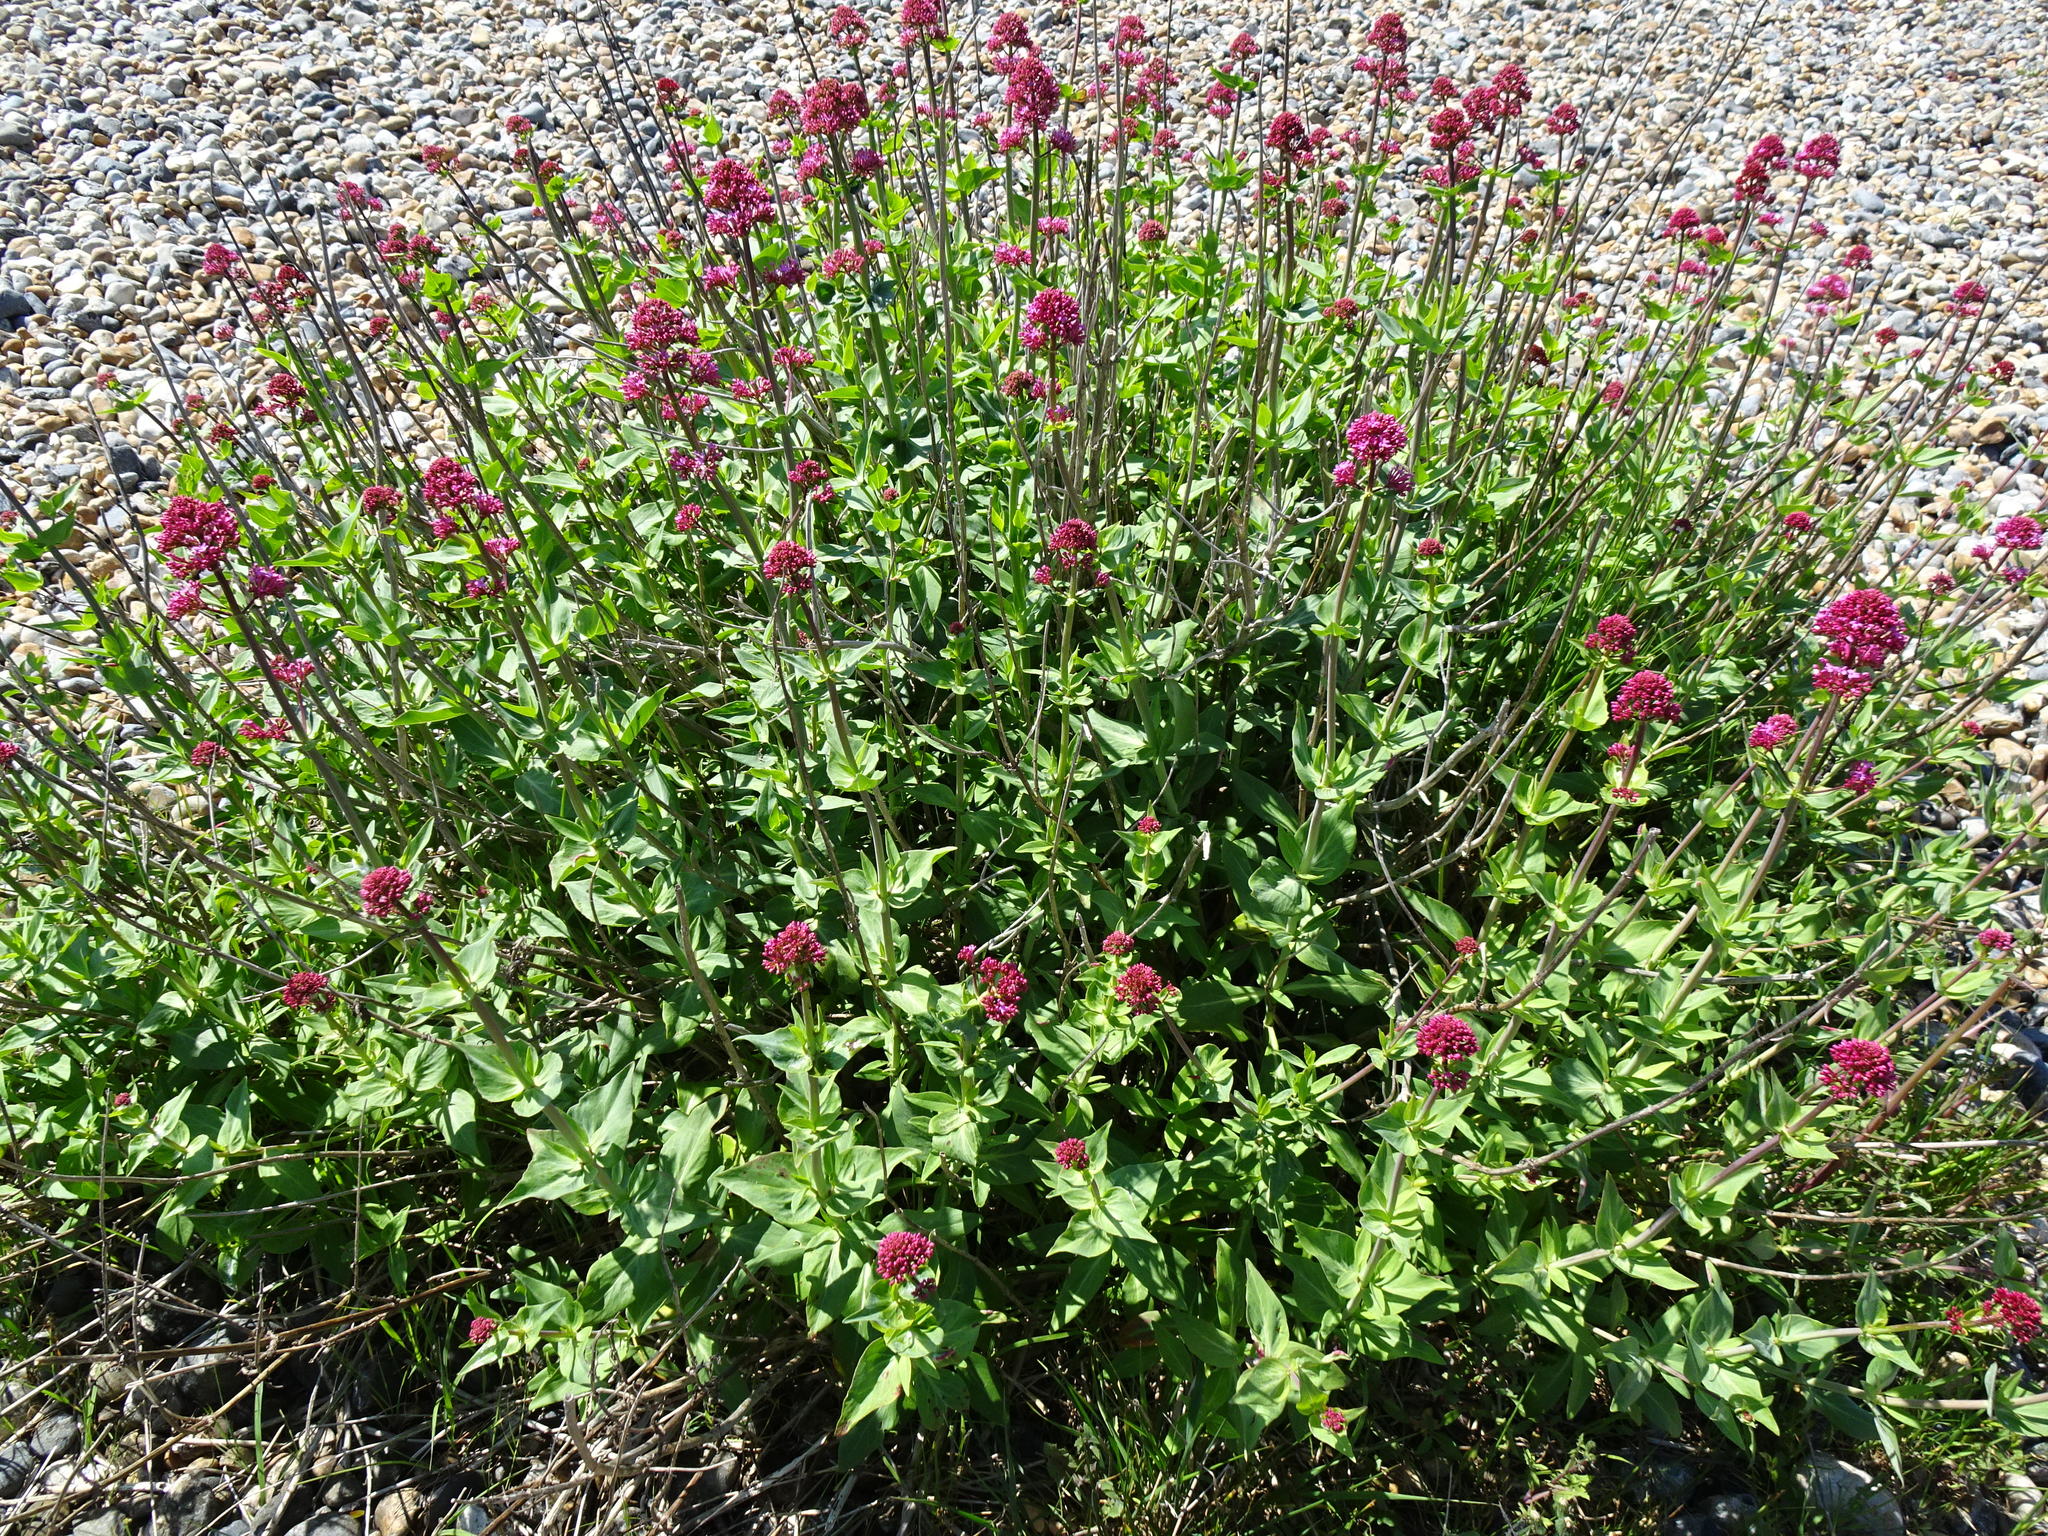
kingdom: Plantae
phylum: Tracheophyta
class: Magnoliopsida
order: Dipsacales
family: Caprifoliaceae
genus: Centranthus
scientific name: Centranthus ruber
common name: Red valerian
